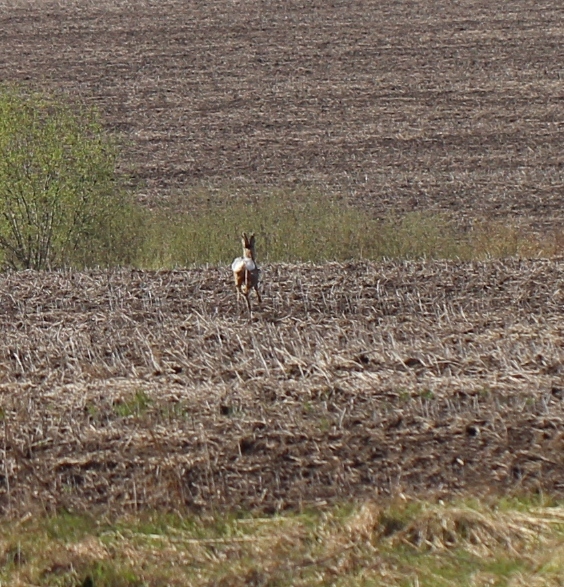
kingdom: Animalia
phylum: Chordata
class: Mammalia
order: Artiodactyla
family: Cervidae
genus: Capreolus
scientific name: Capreolus capreolus
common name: Western roe deer
